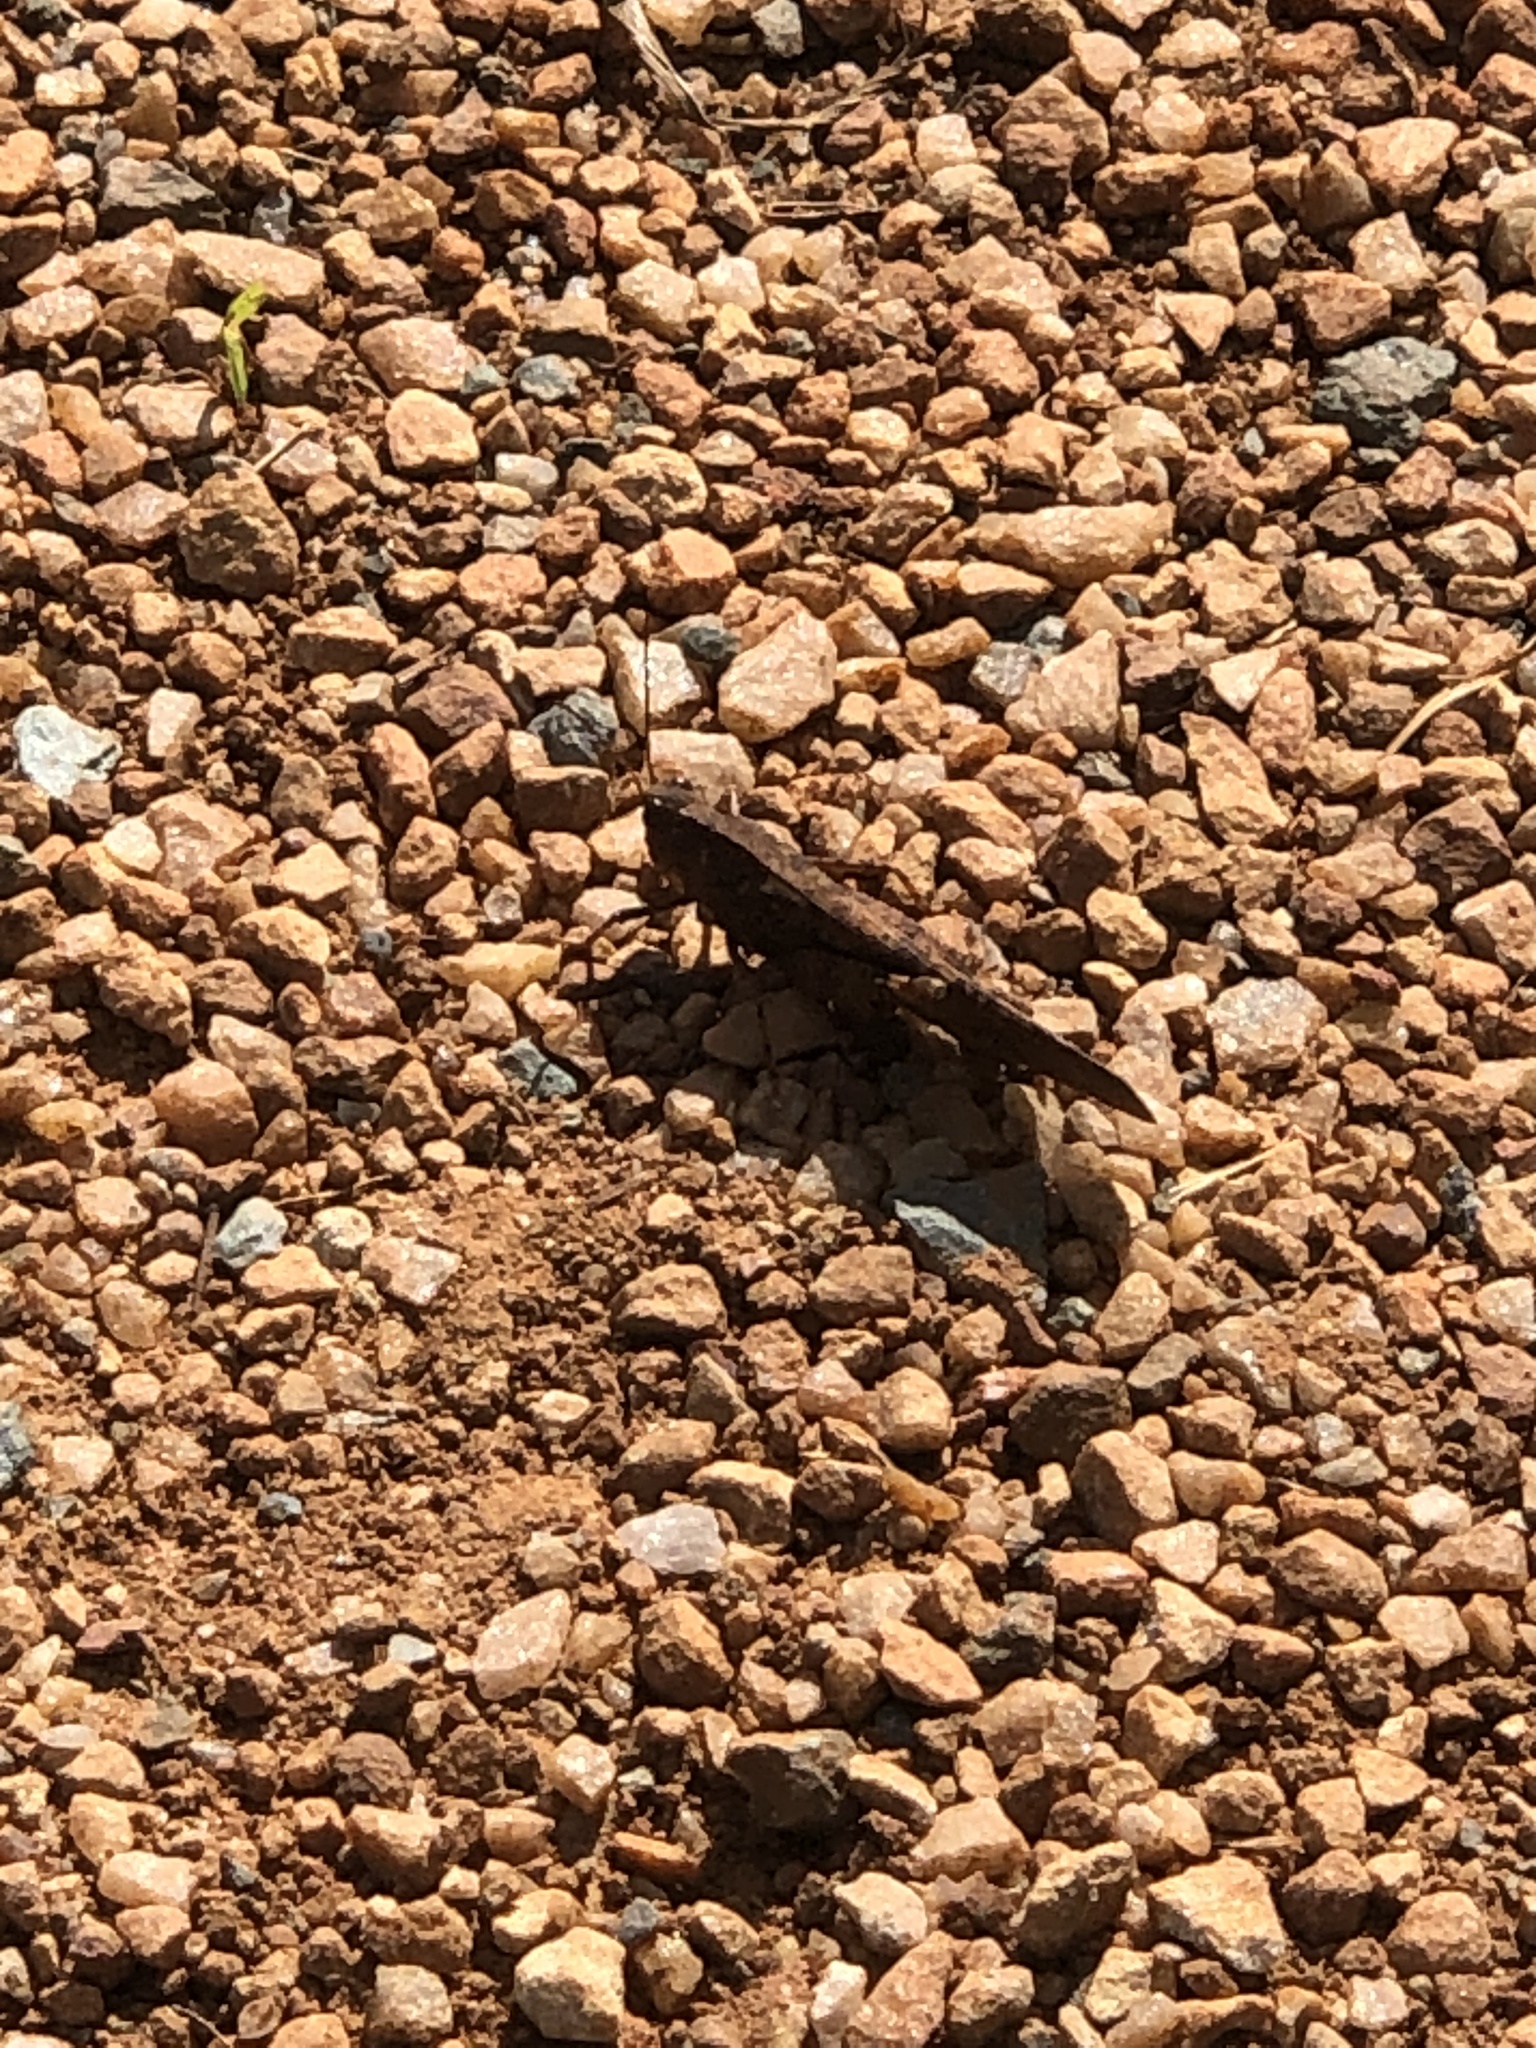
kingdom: Animalia
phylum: Arthropoda
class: Insecta
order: Orthoptera
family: Acrididae
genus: Dissosteira
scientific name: Dissosteira carolina
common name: Carolina grasshopper
